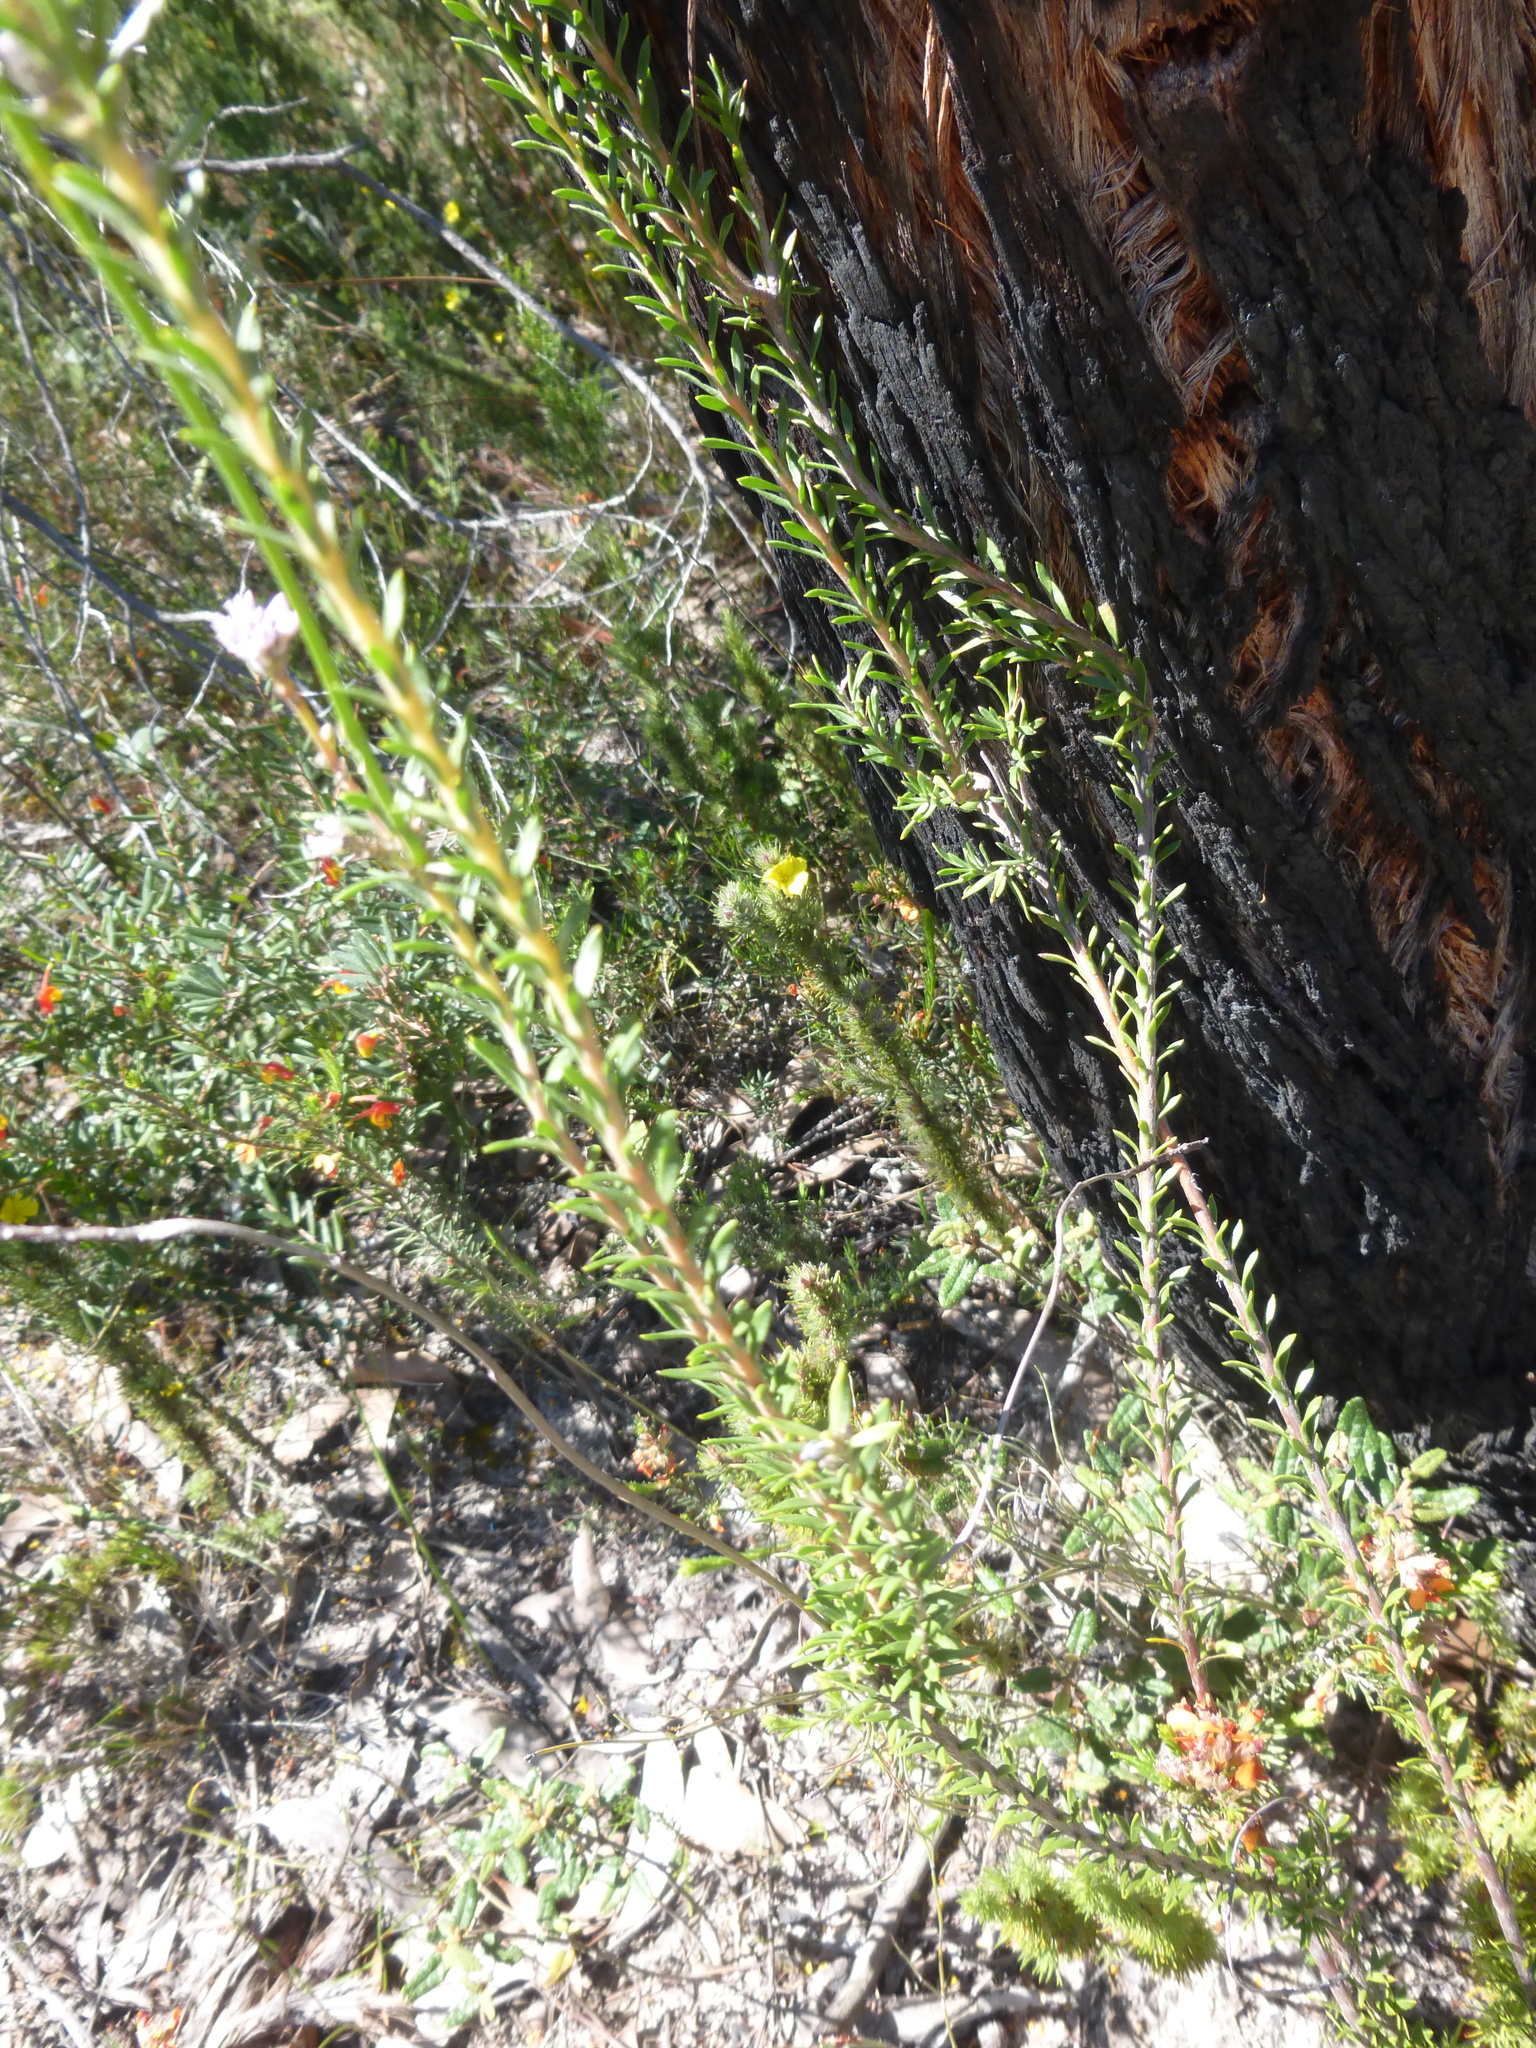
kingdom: Plantae
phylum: Tracheophyta
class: Magnoliopsida
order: Proteales
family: Proteaceae
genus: Conospermum
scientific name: Conospermum patens
